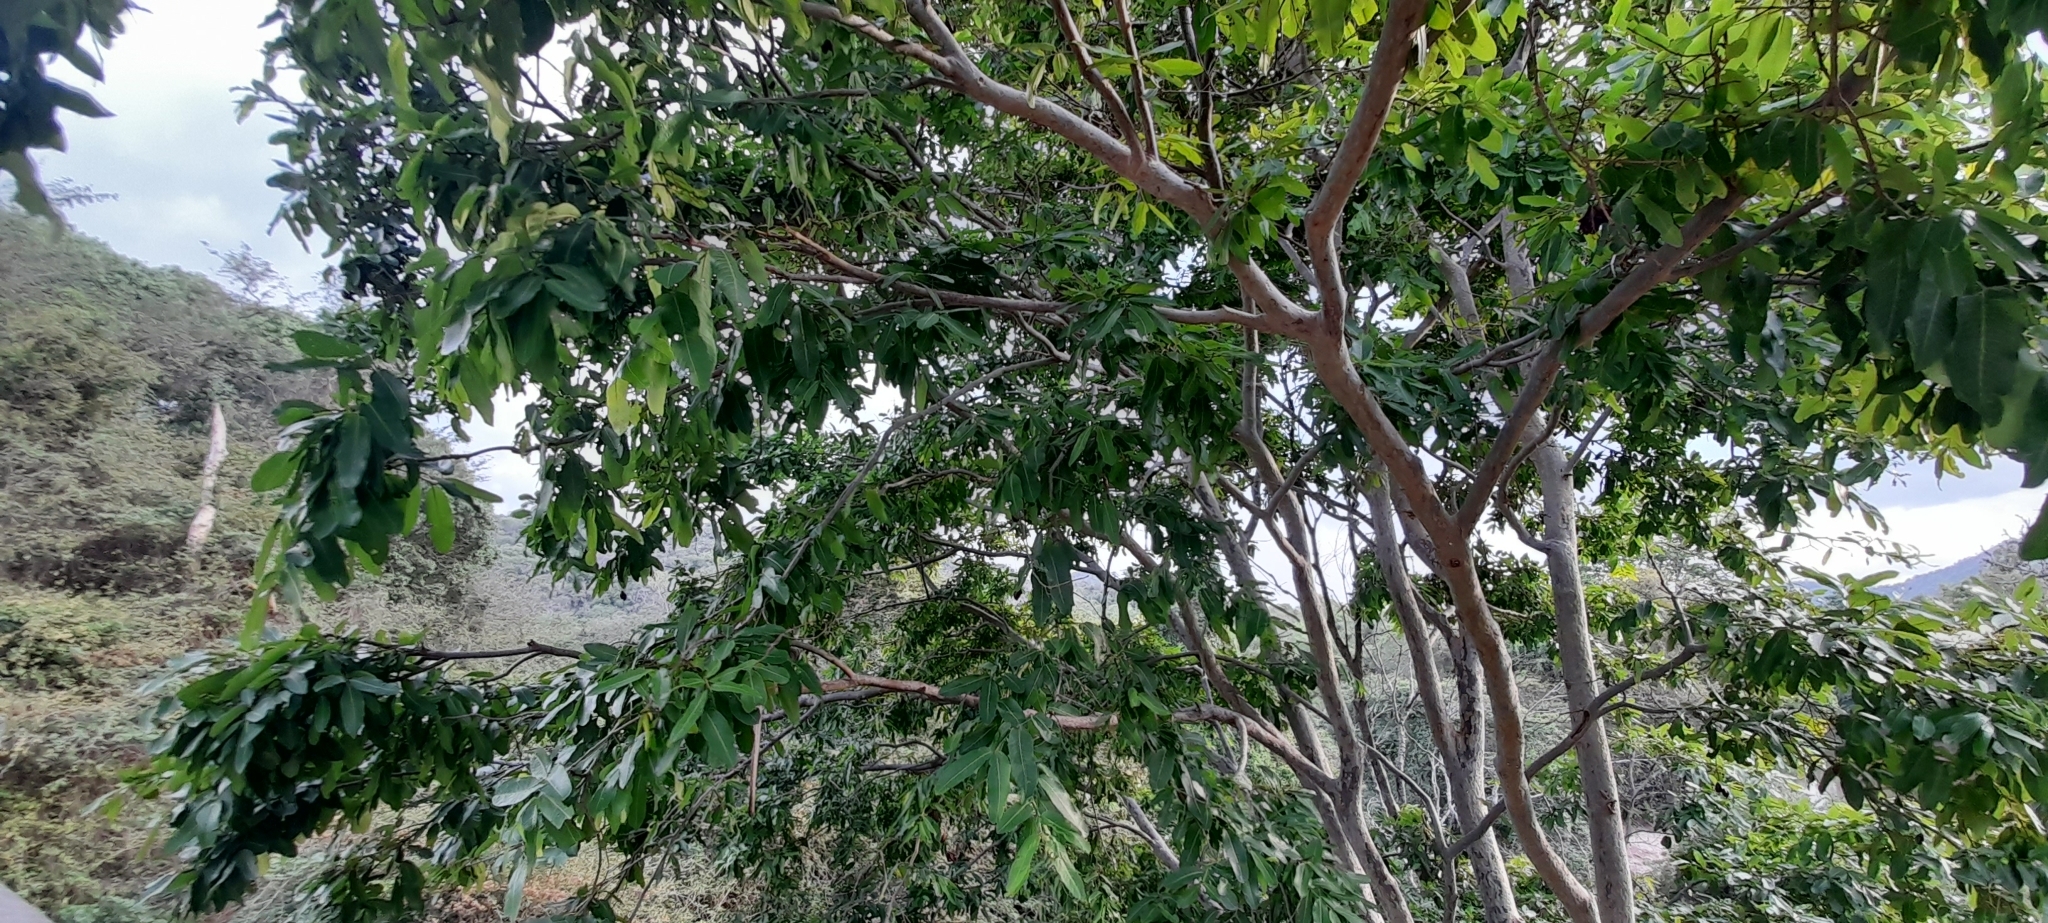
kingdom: Plantae
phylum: Tracheophyta
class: Magnoliopsida
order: Myrtales
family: Combretaceae
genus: Terminalia
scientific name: Terminalia arjuna
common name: Arjun
